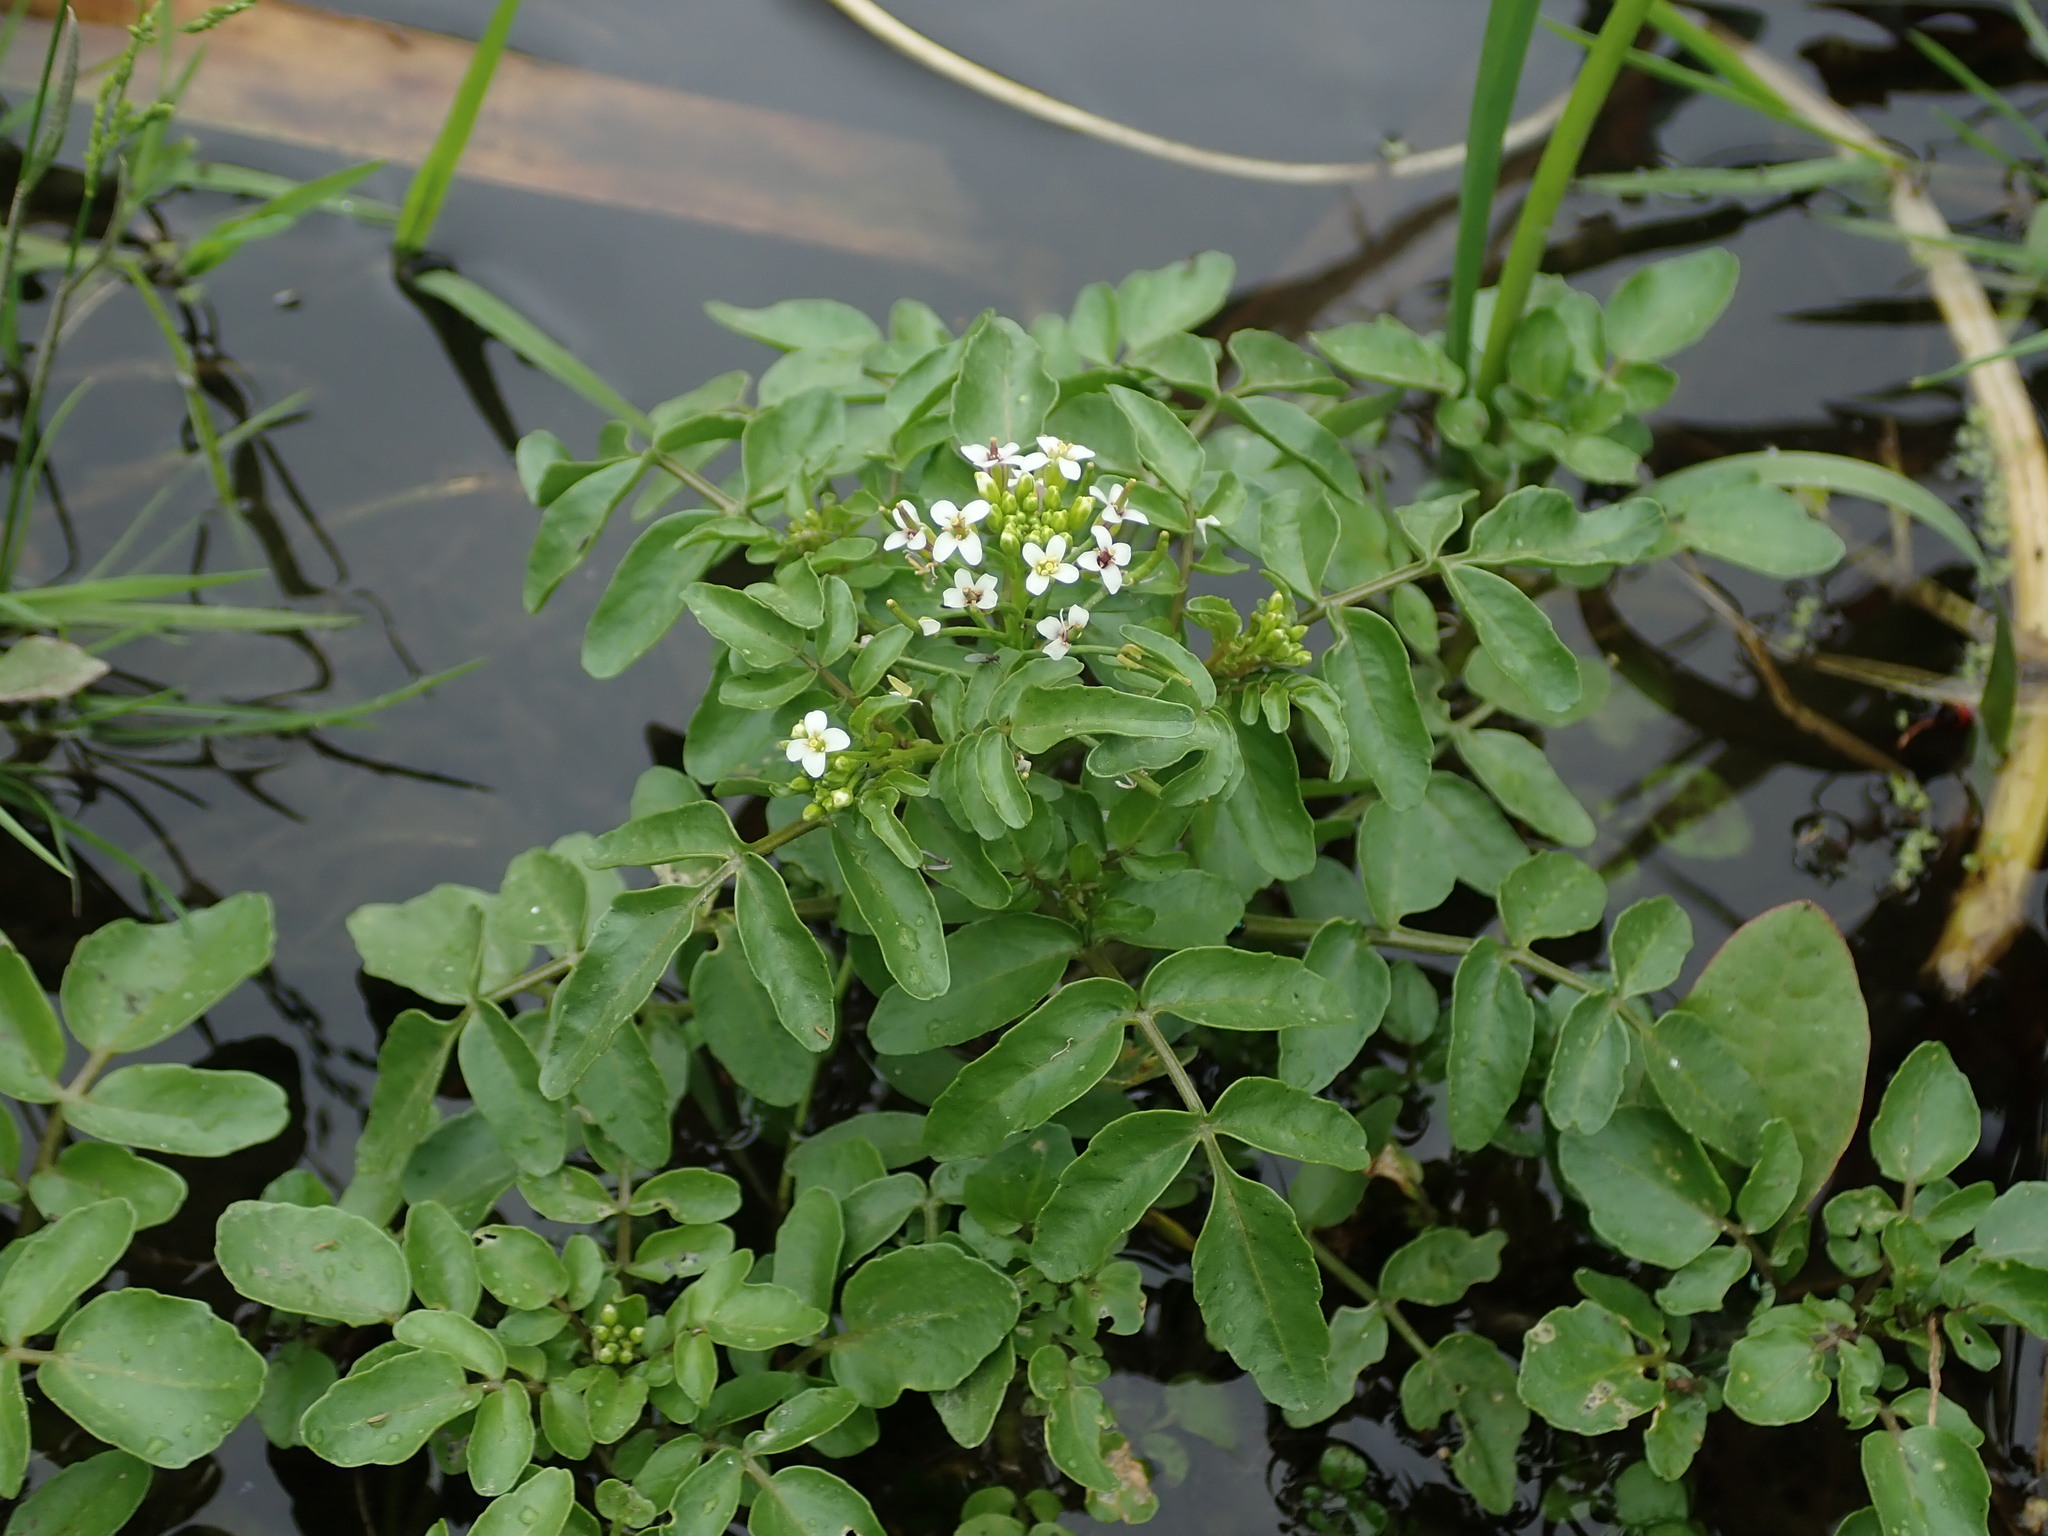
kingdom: Plantae
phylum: Tracheophyta
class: Magnoliopsida
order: Brassicales
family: Brassicaceae
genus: Nasturtium
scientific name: Nasturtium officinale
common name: Watercress
